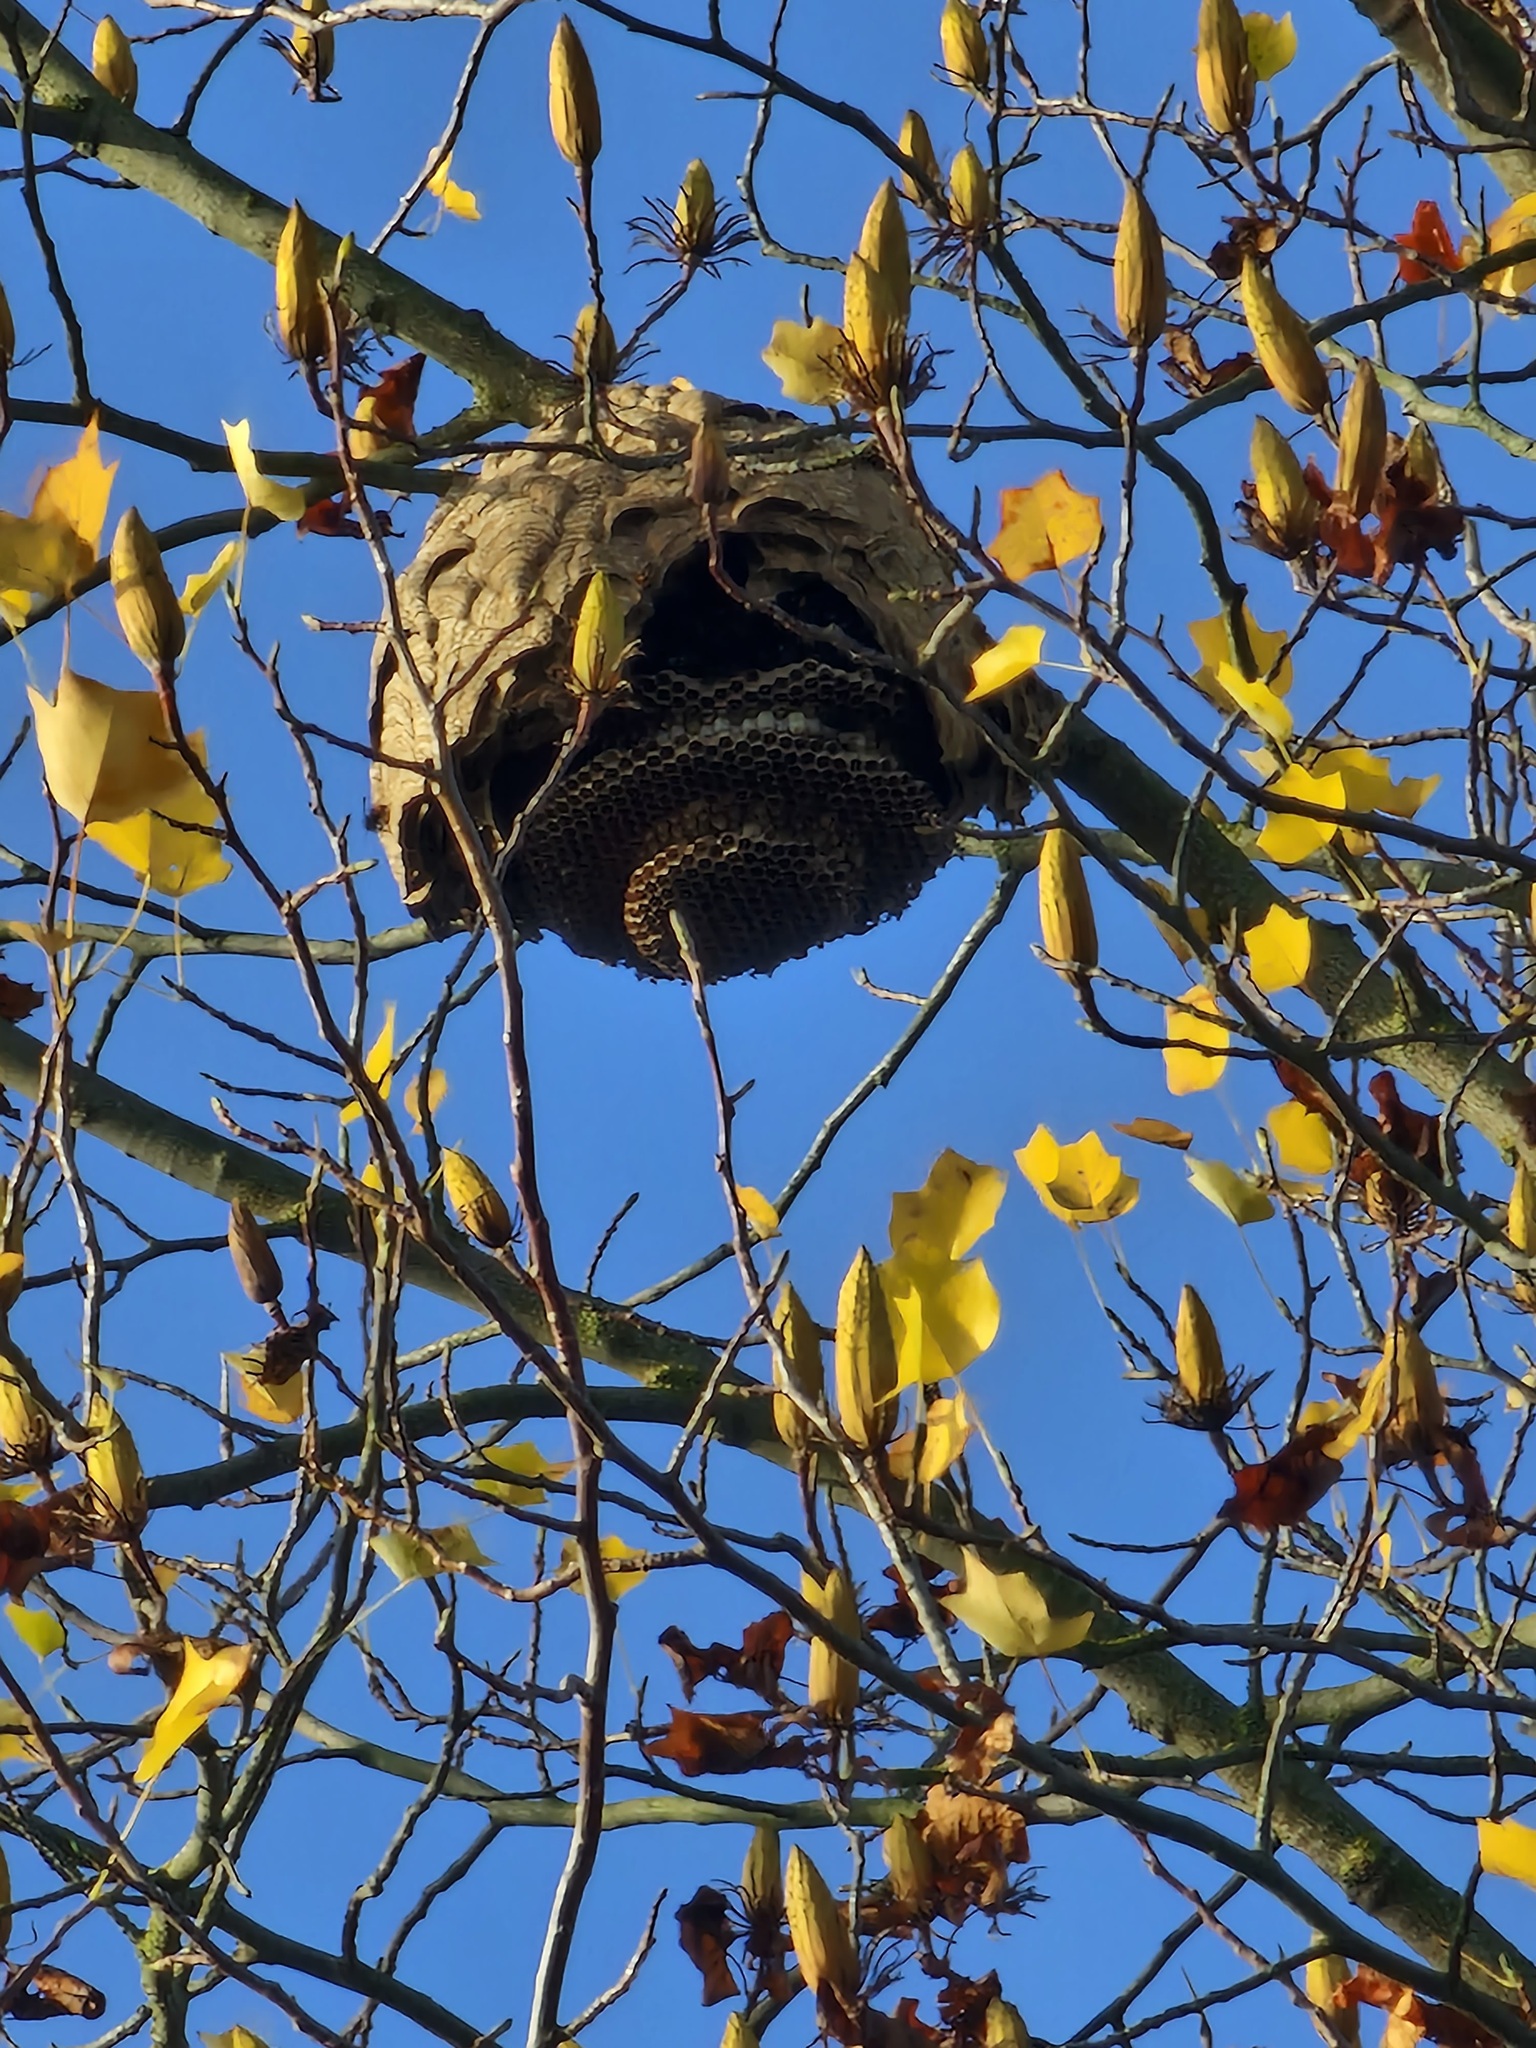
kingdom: Animalia
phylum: Arthropoda
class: Insecta
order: Hymenoptera
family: Vespidae
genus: Vespa
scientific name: Vespa velutina
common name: Asian hornet
